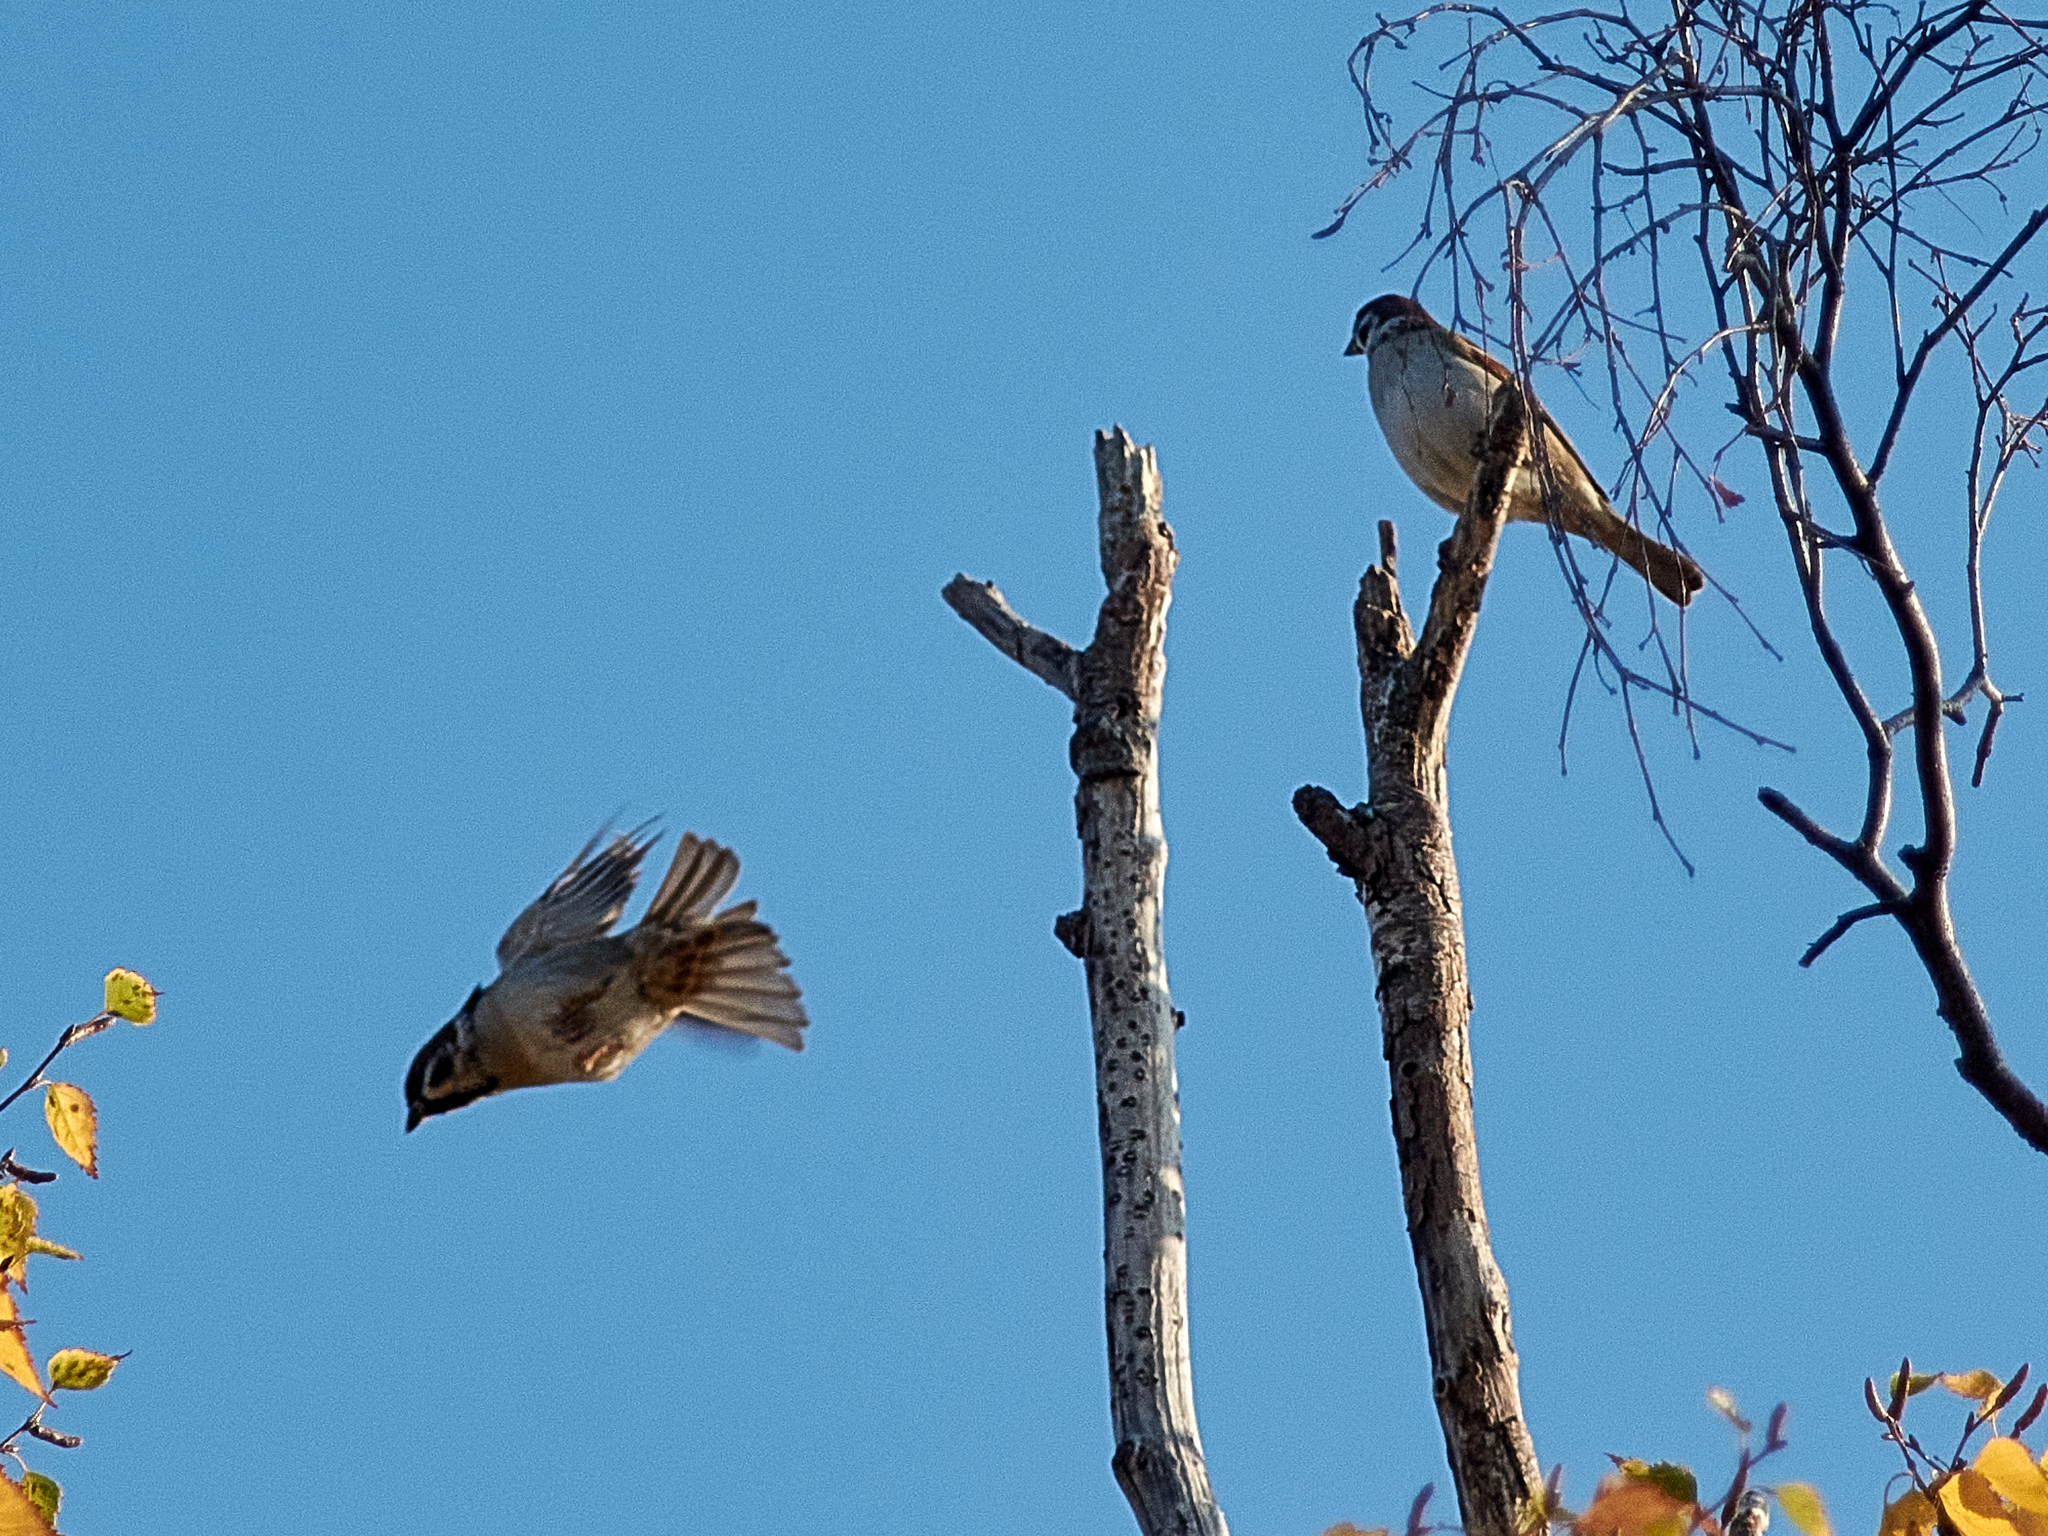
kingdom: Animalia
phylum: Chordata
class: Aves
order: Passeriformes
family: Passeridae
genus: Passer
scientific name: Passer montanus
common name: Eurasian tree sparrow
